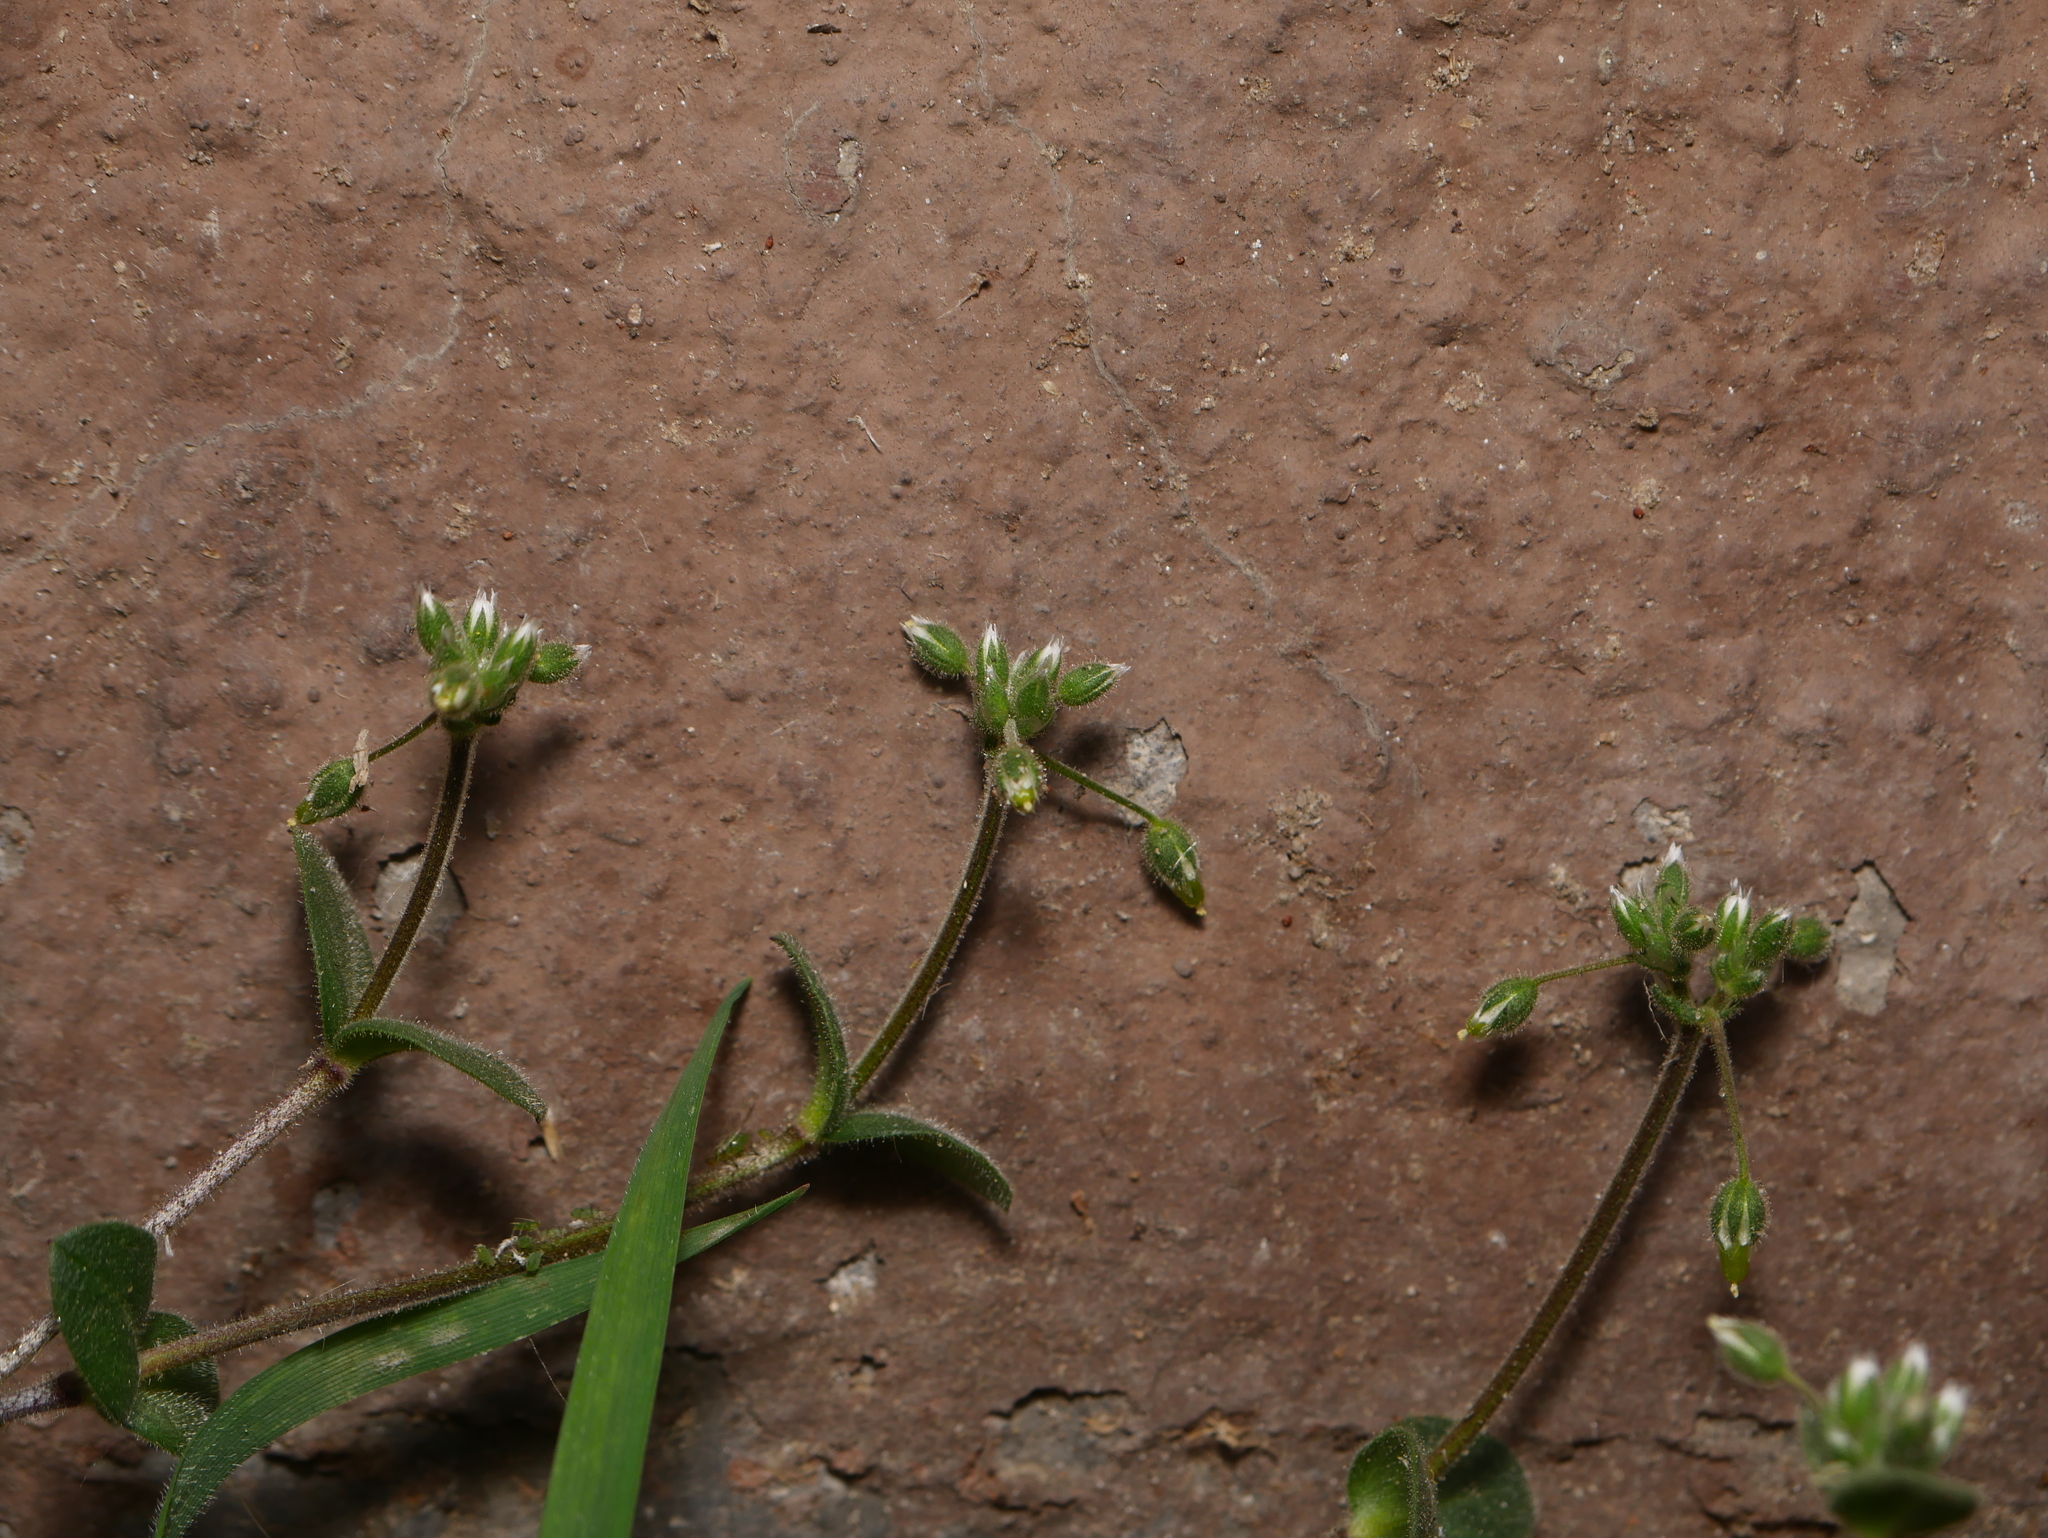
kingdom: Plantae
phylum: Tracheophyta
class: Magnoliopsida
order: Caryophyllales
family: Caryophyllaceae
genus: Cerastium
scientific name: Cerastium holosteoides
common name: Big chickweed
